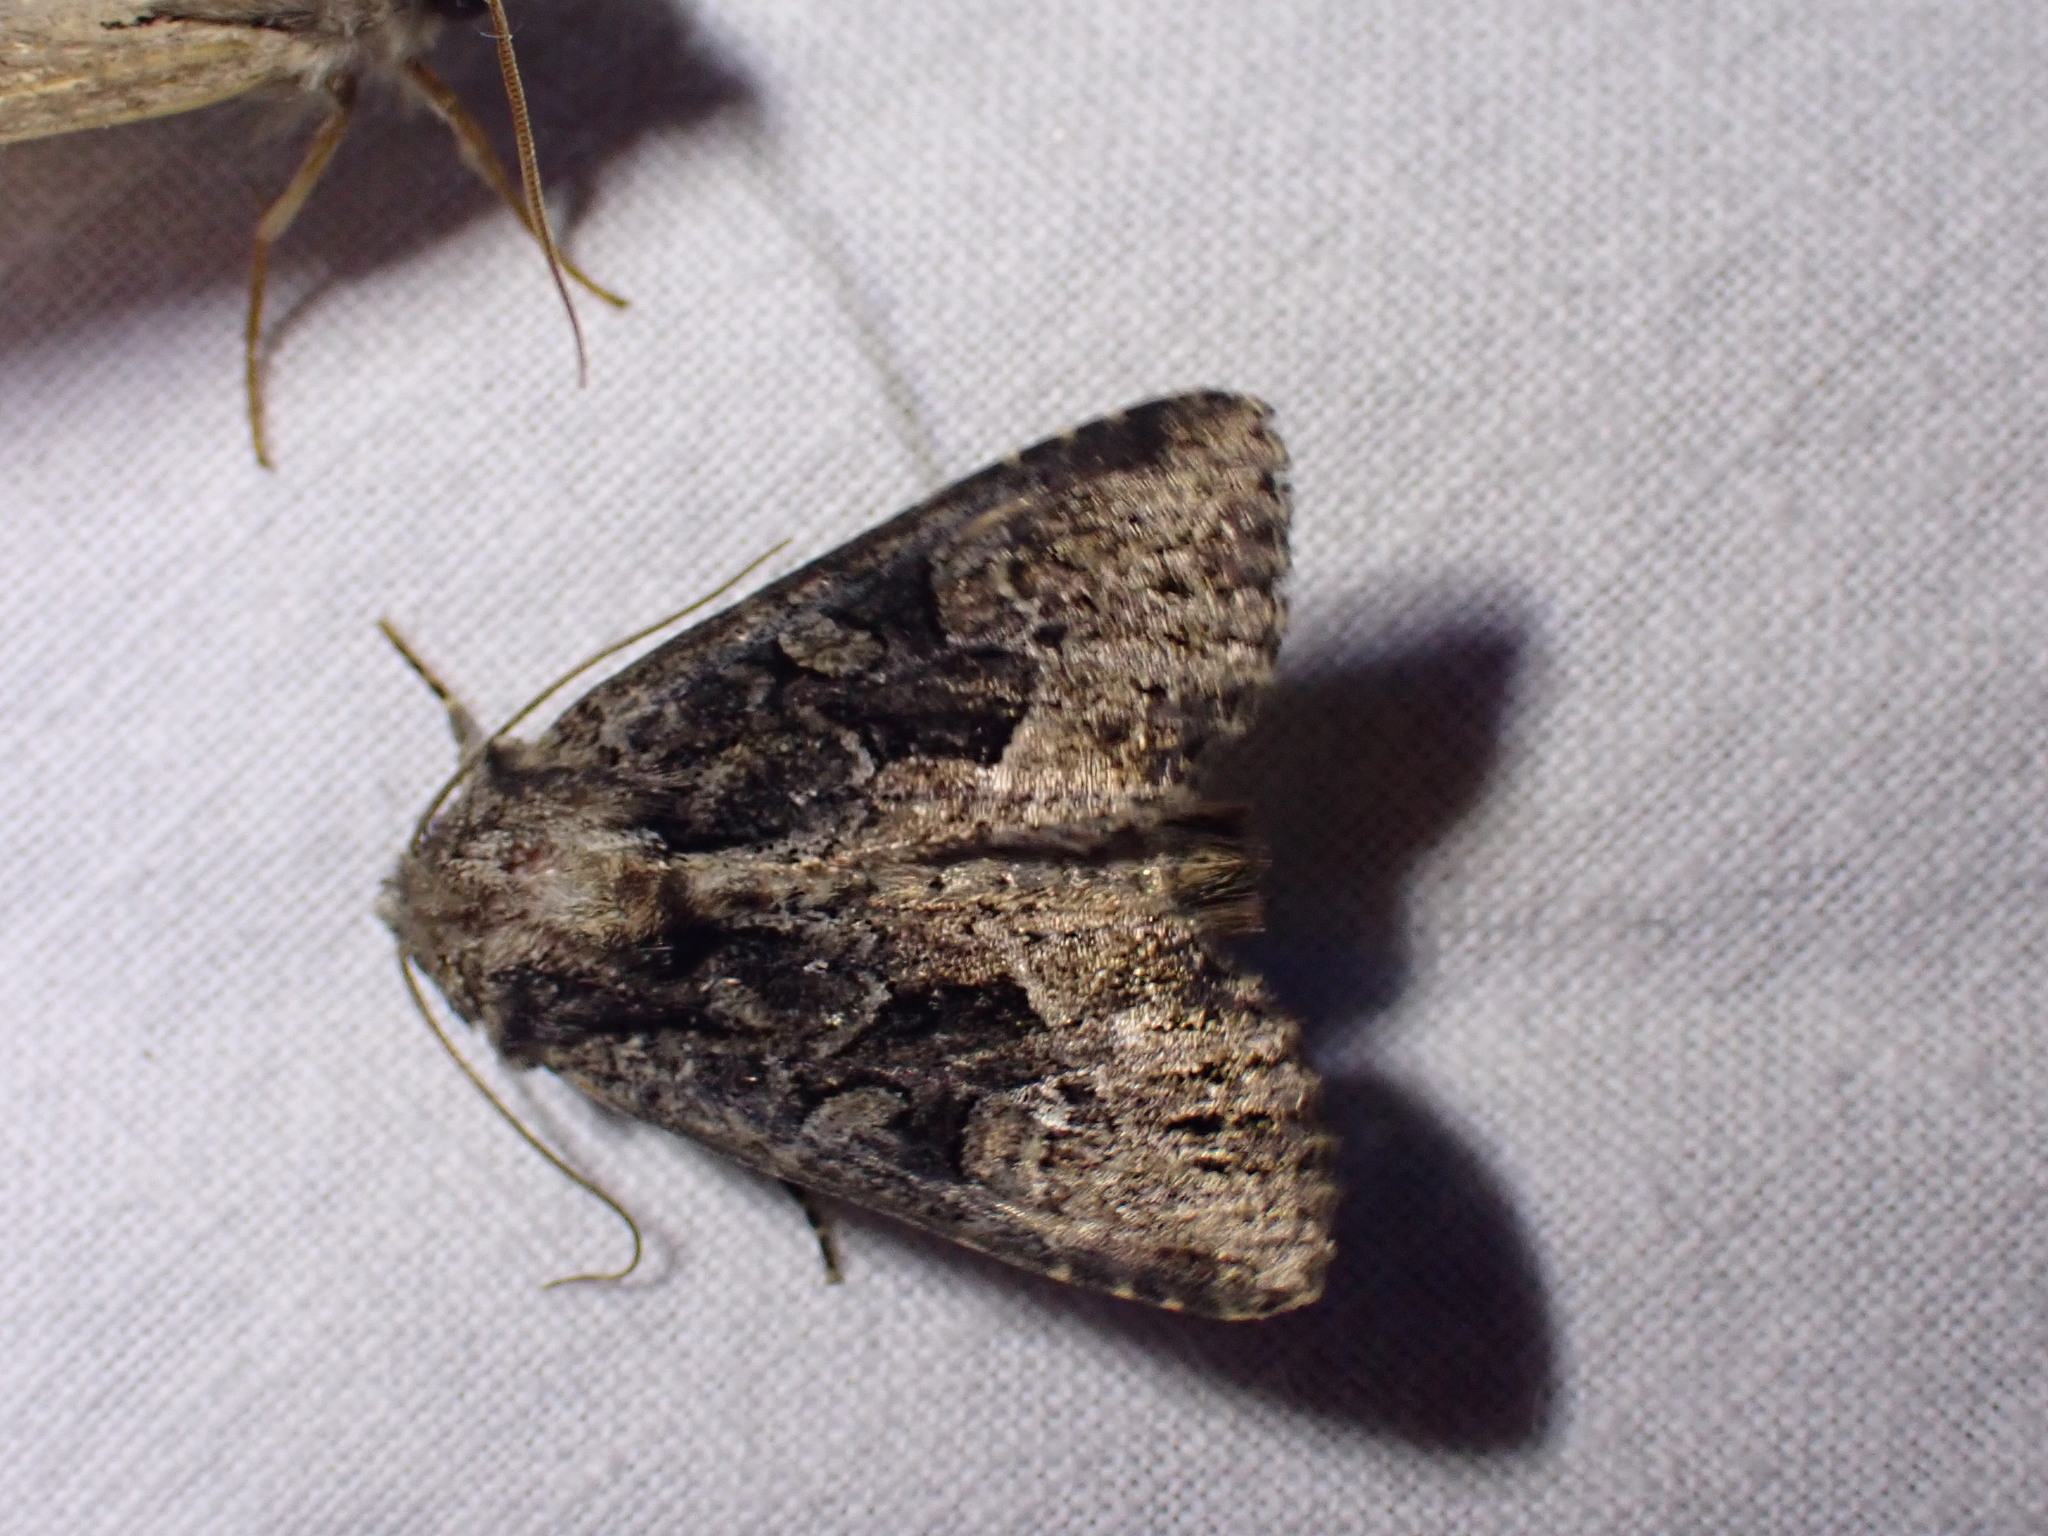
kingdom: Animalia
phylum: Arthropoda
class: Insecta
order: Lepidoptera
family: Noctuidae
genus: Apamea
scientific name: Apamea remissa
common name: Dusky brocade
